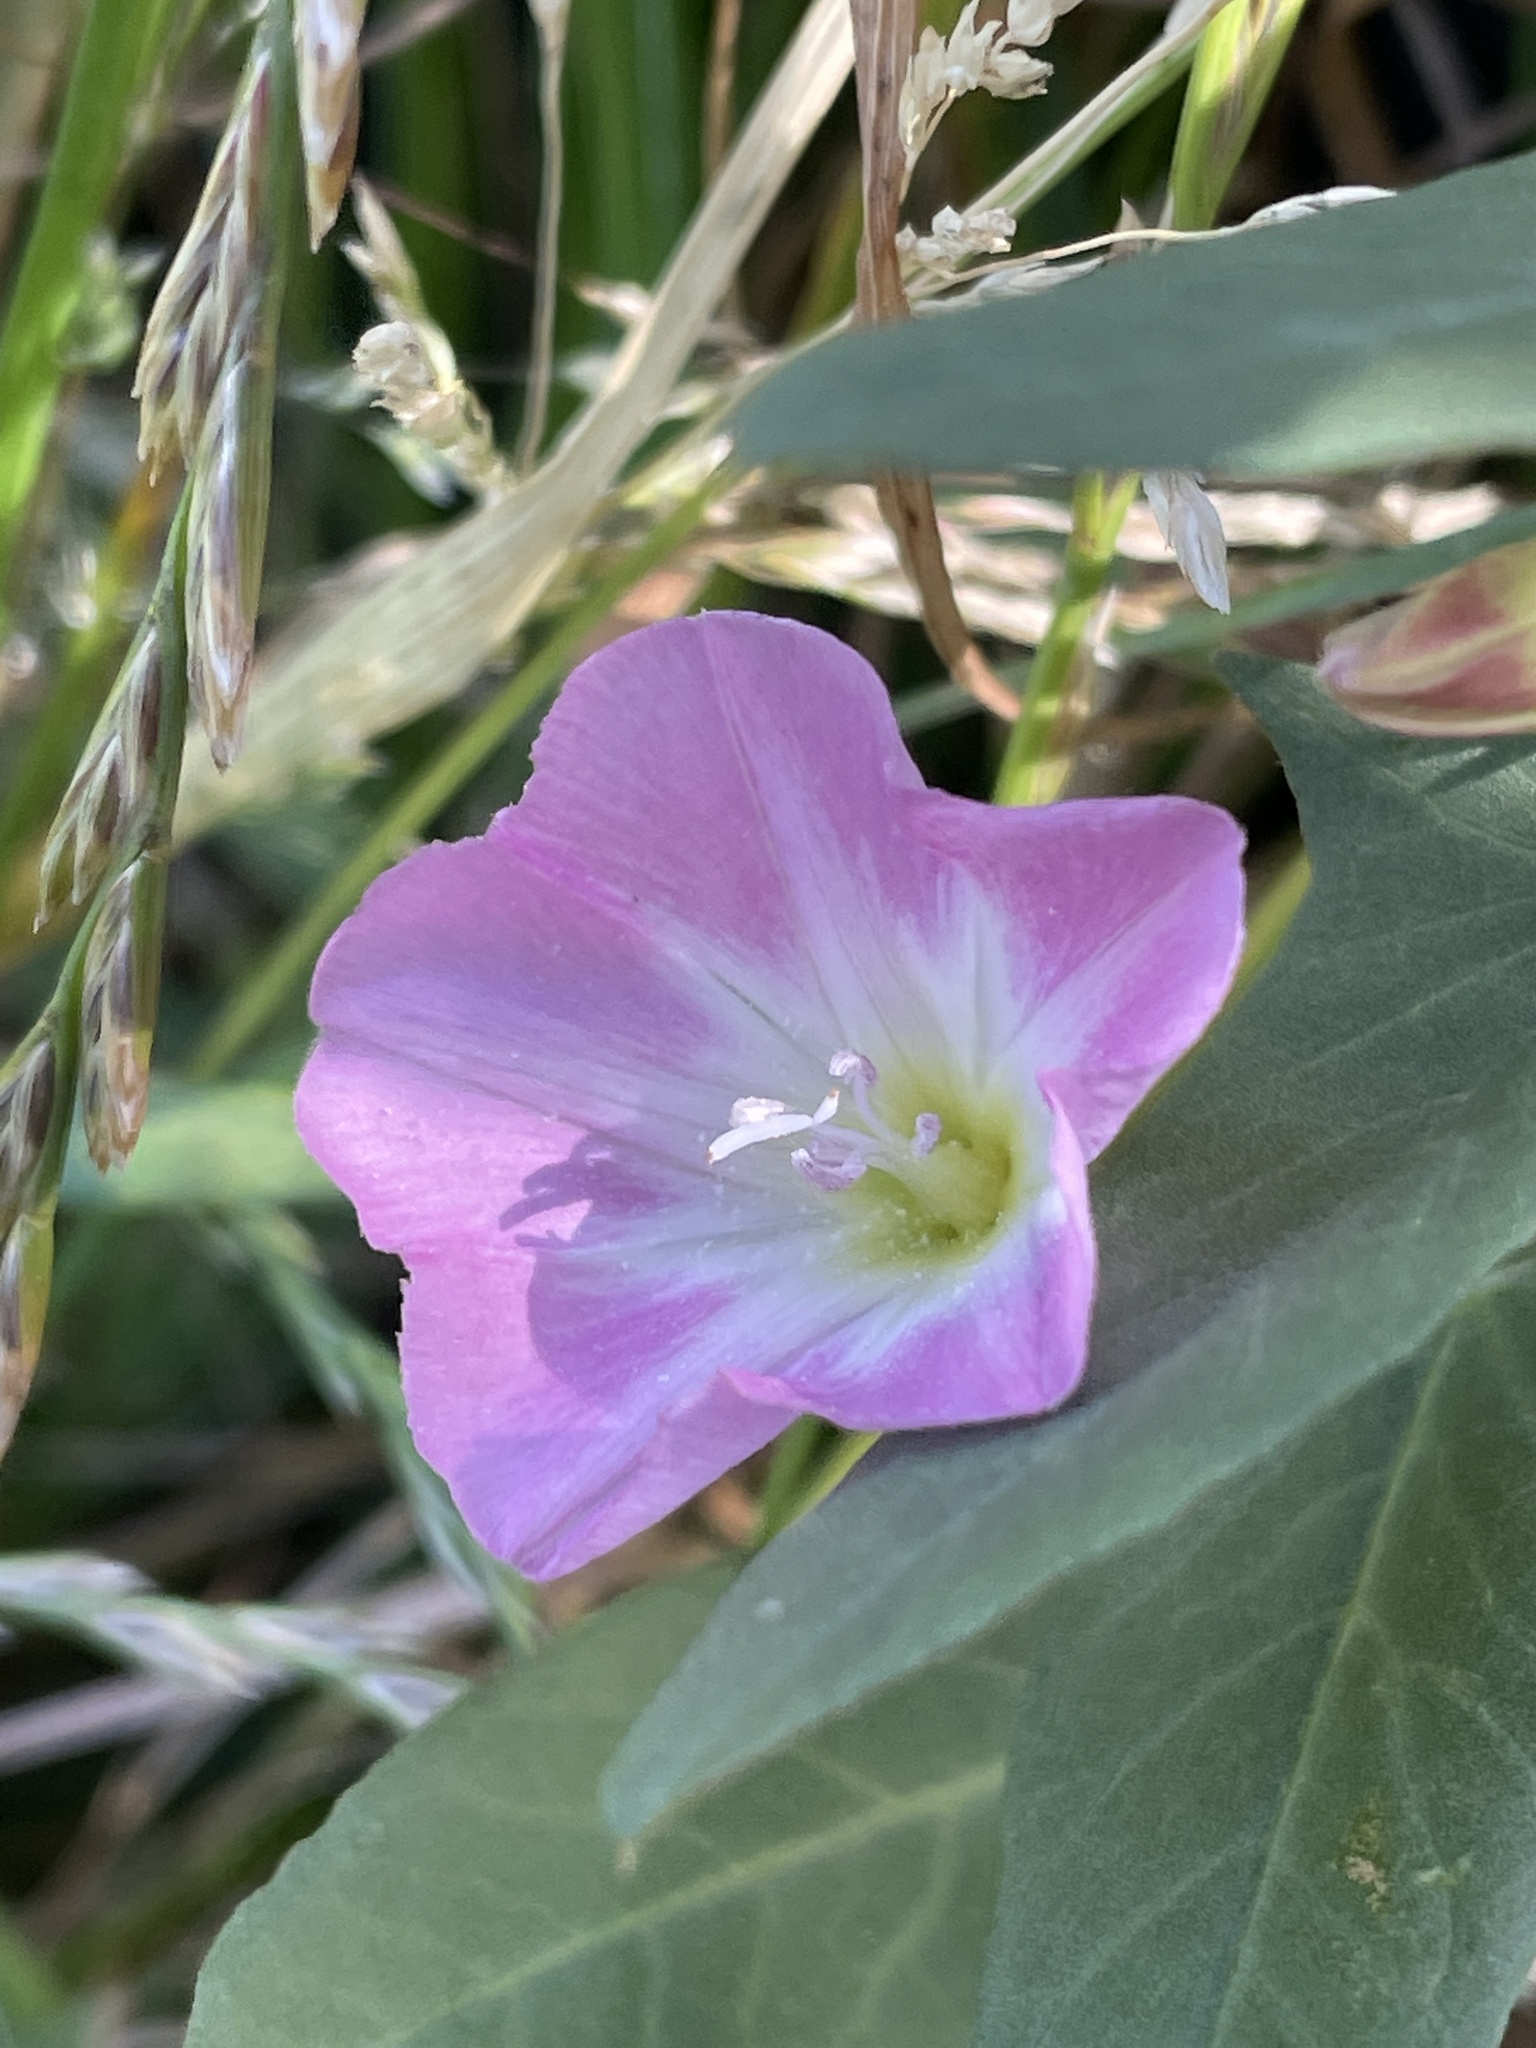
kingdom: Plantae
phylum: Tracheophyta
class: Magnoliopsida
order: Solanales
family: Convolvulaceae
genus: Convolvulus
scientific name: Convolvulus arvensis
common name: Field bindweed
